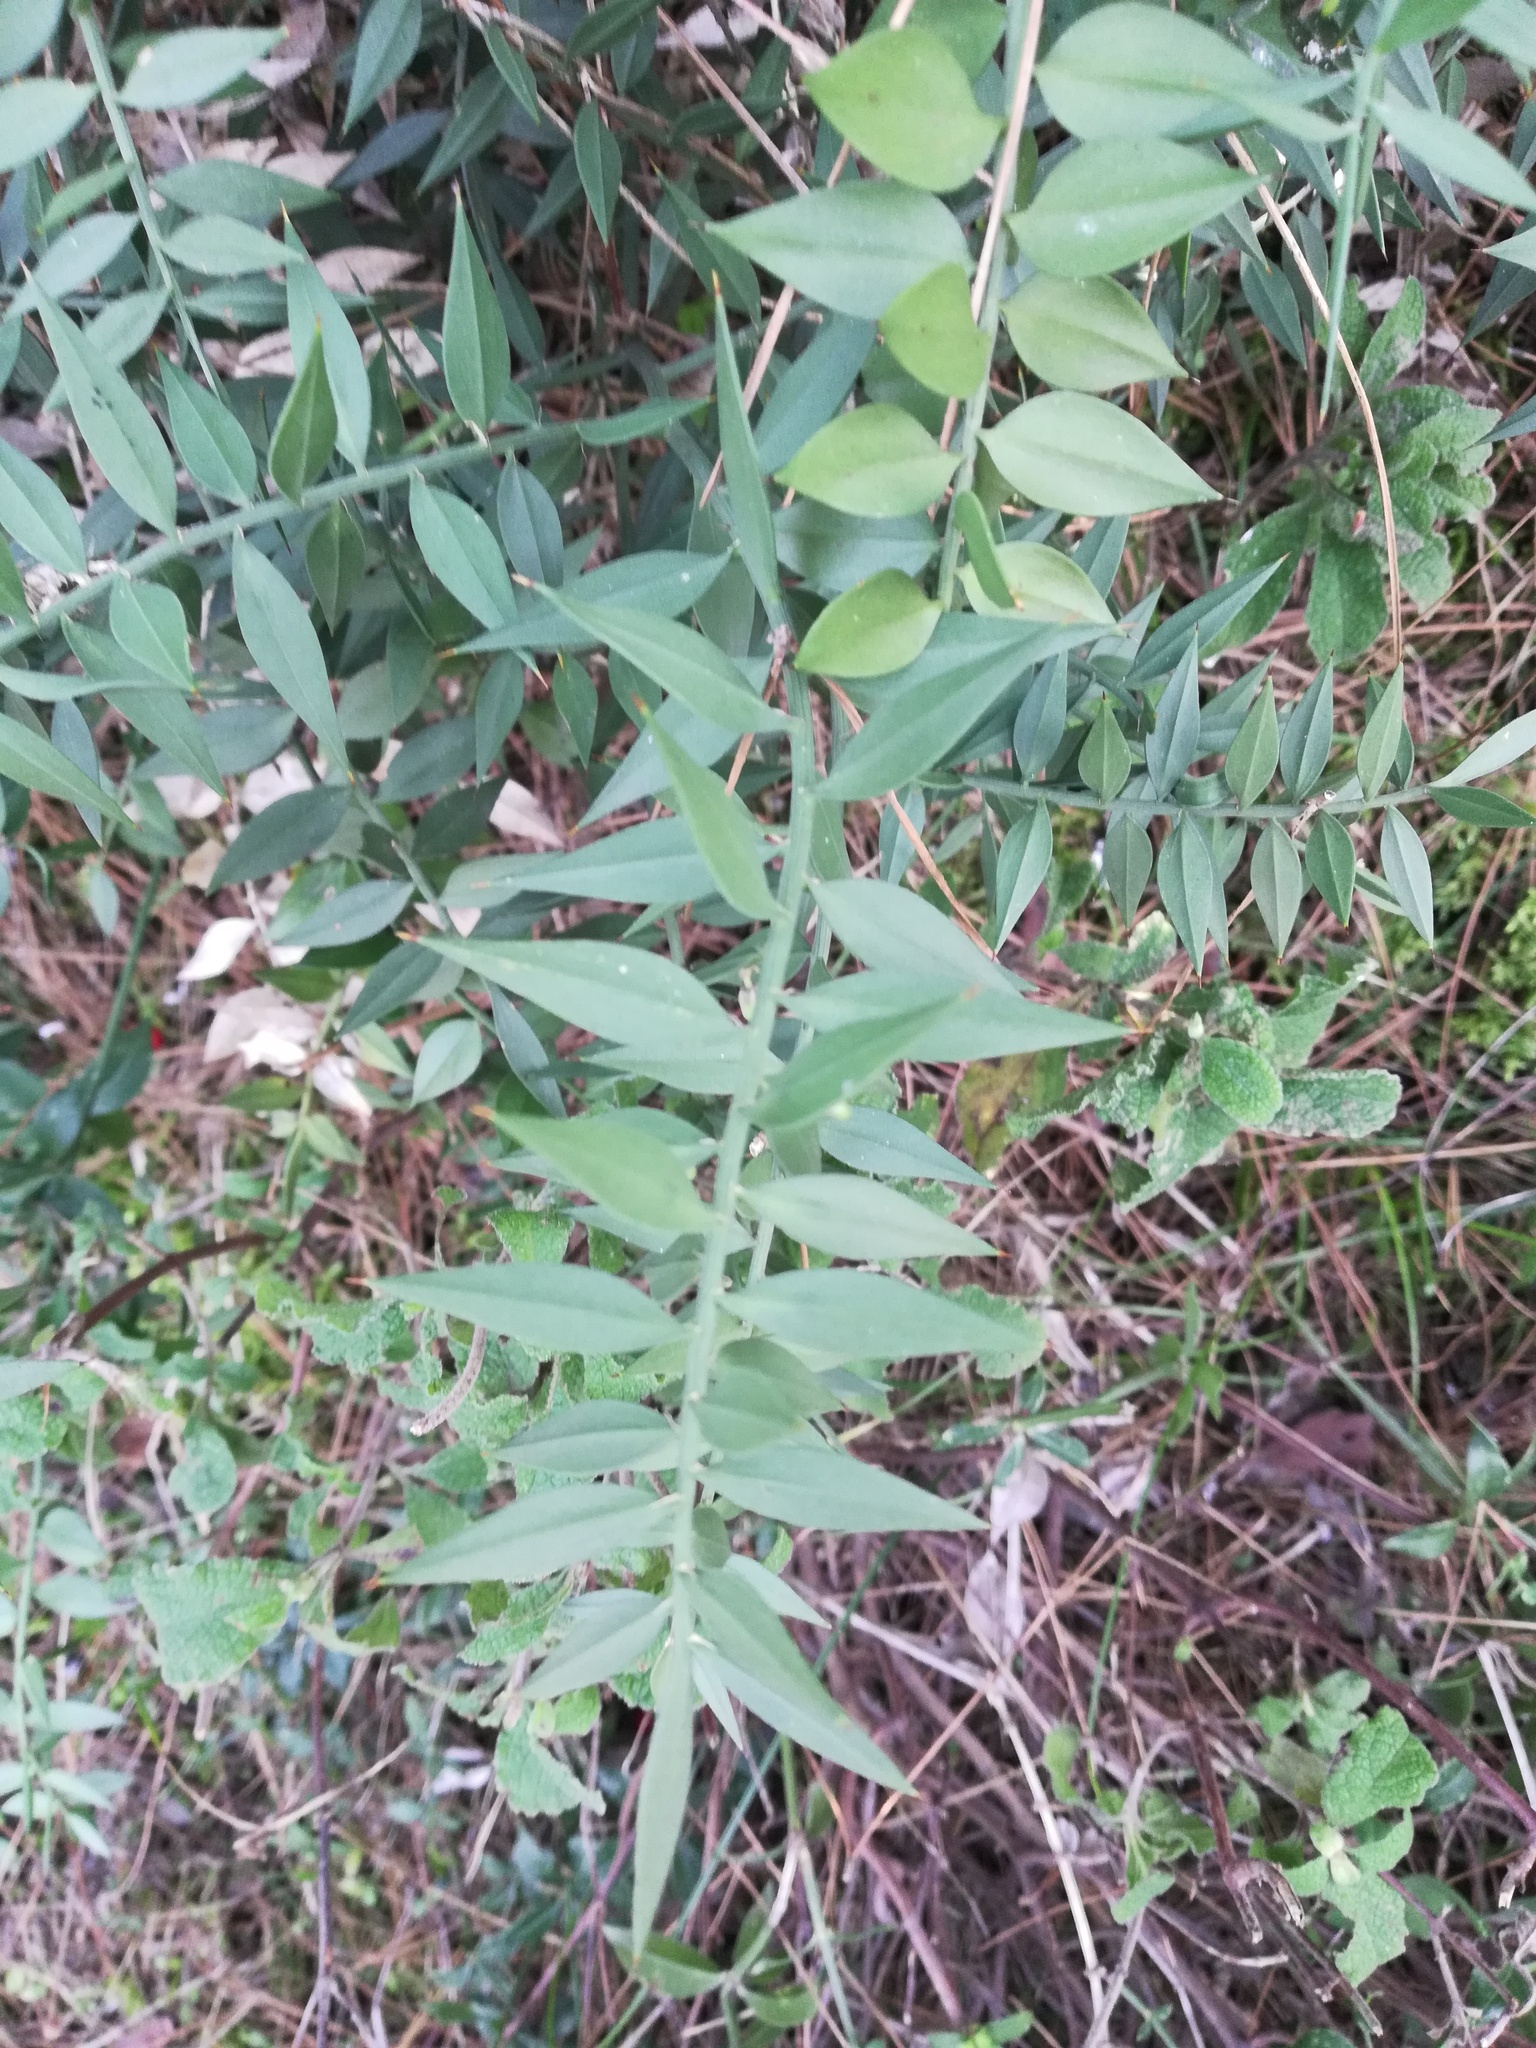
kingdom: Plantae
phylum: Tracheophyta
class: Liliopsida
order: Asparagales
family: Asparagaceae
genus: Ruscus
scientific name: Ruscus aculeatus
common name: Butcher's-broom
